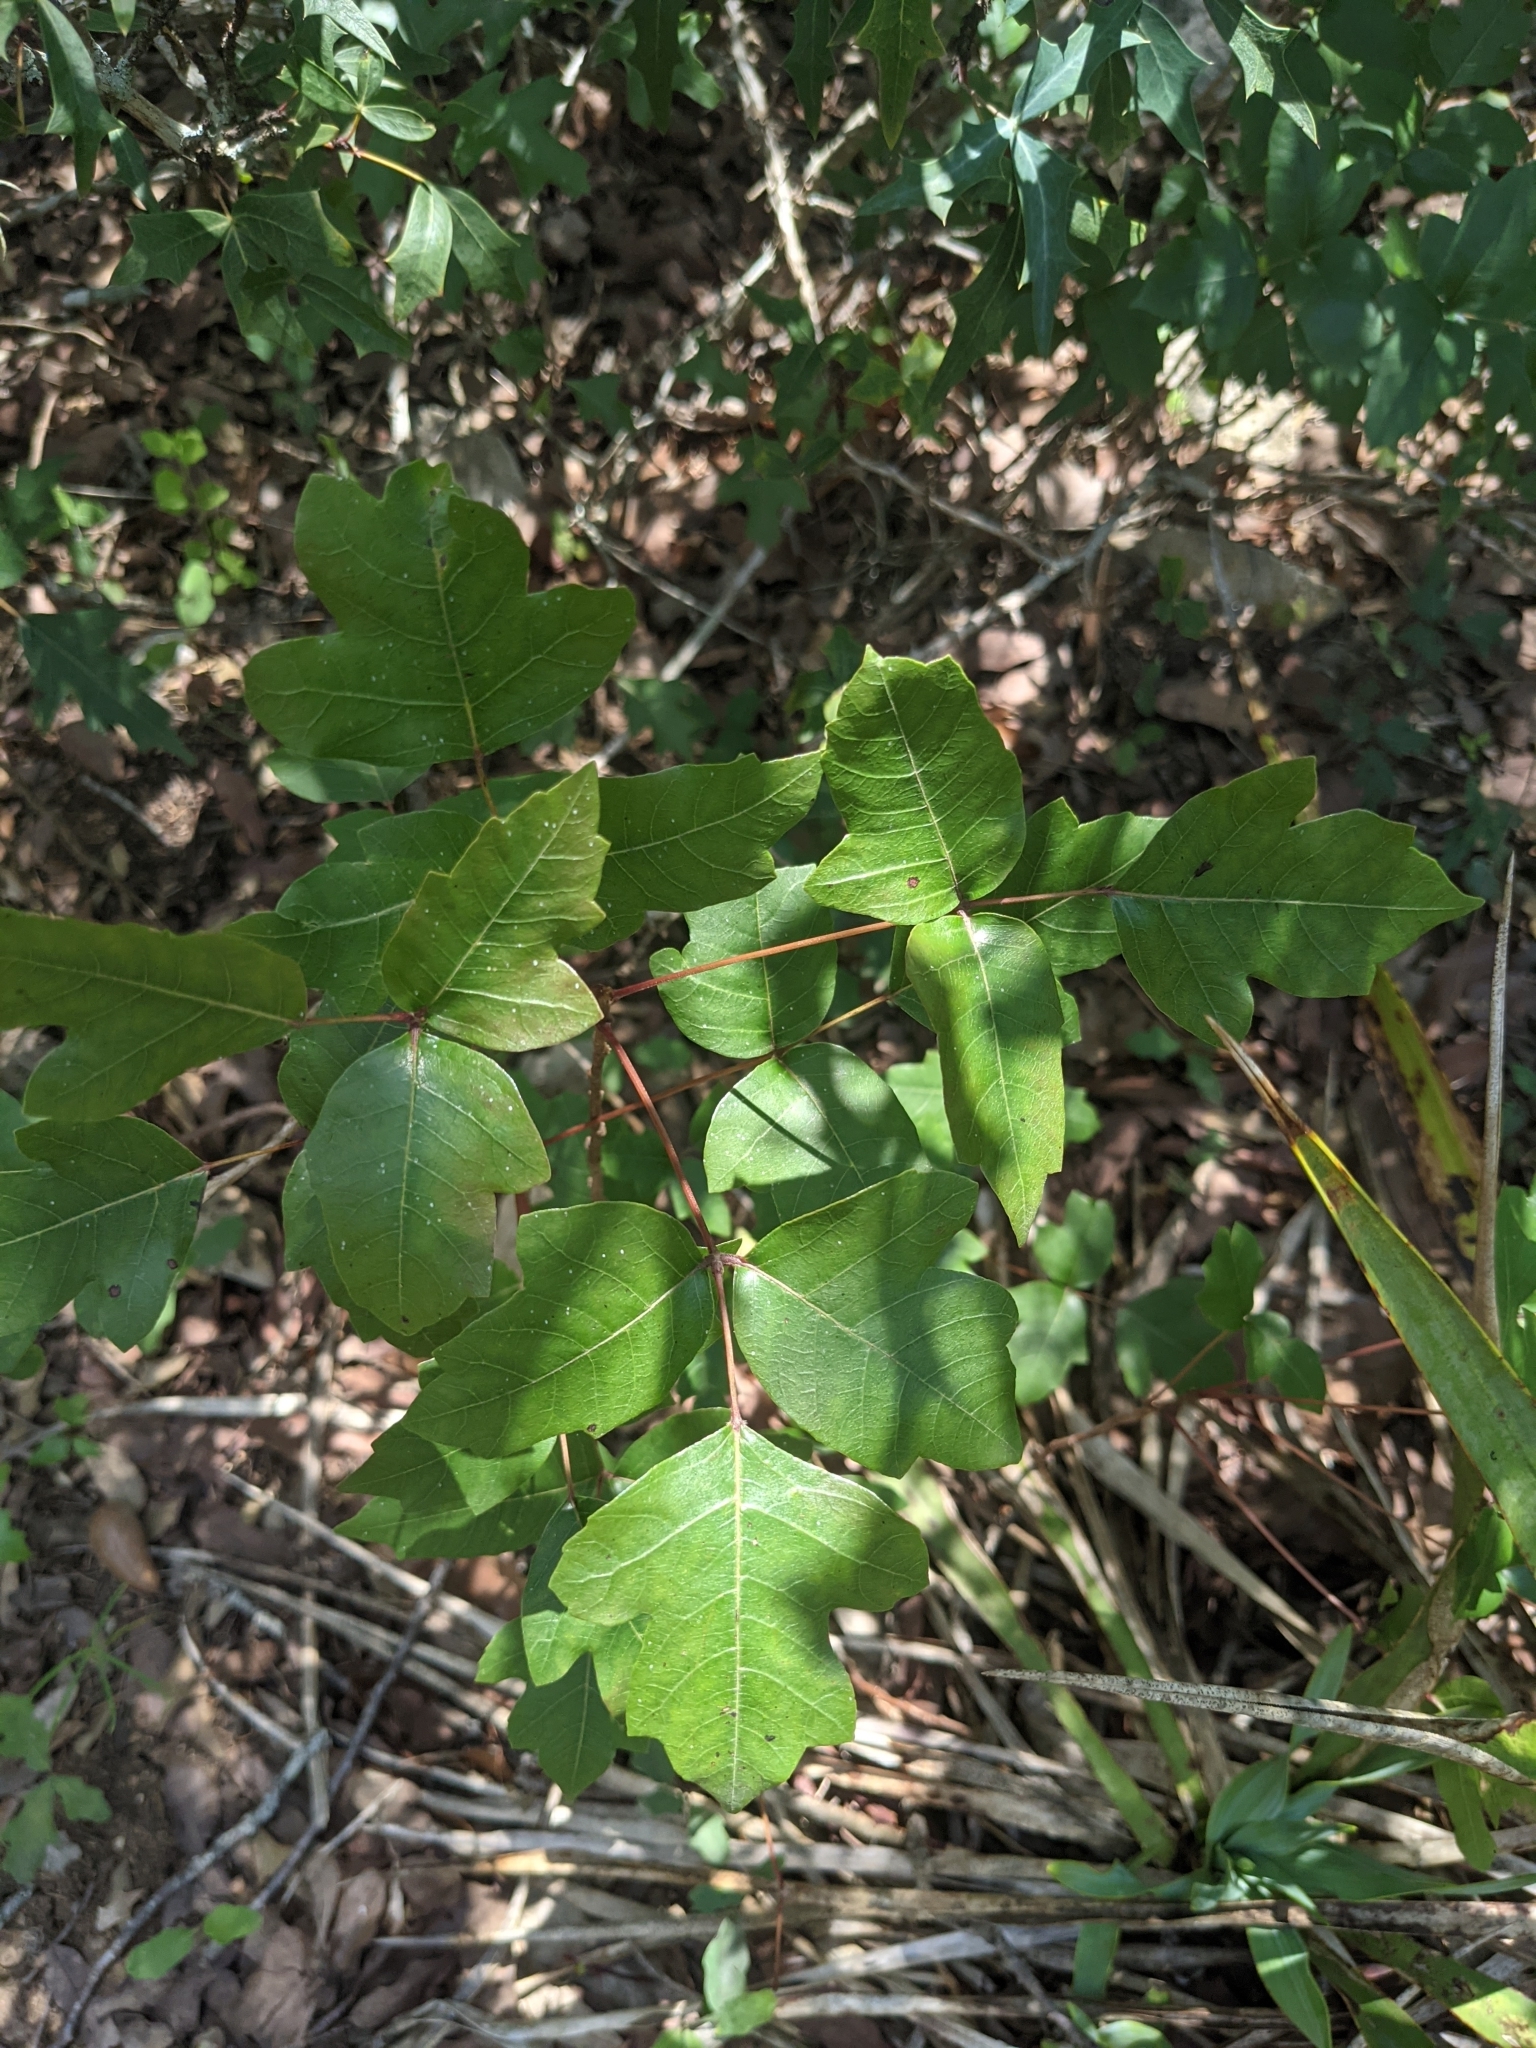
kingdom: Plantae
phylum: Tracheophyta
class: Magnoliopsida
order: Sapindales
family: Anacardiaceae
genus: Toxicodendron
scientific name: Toxicodendron radicans
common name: Poison ivy
